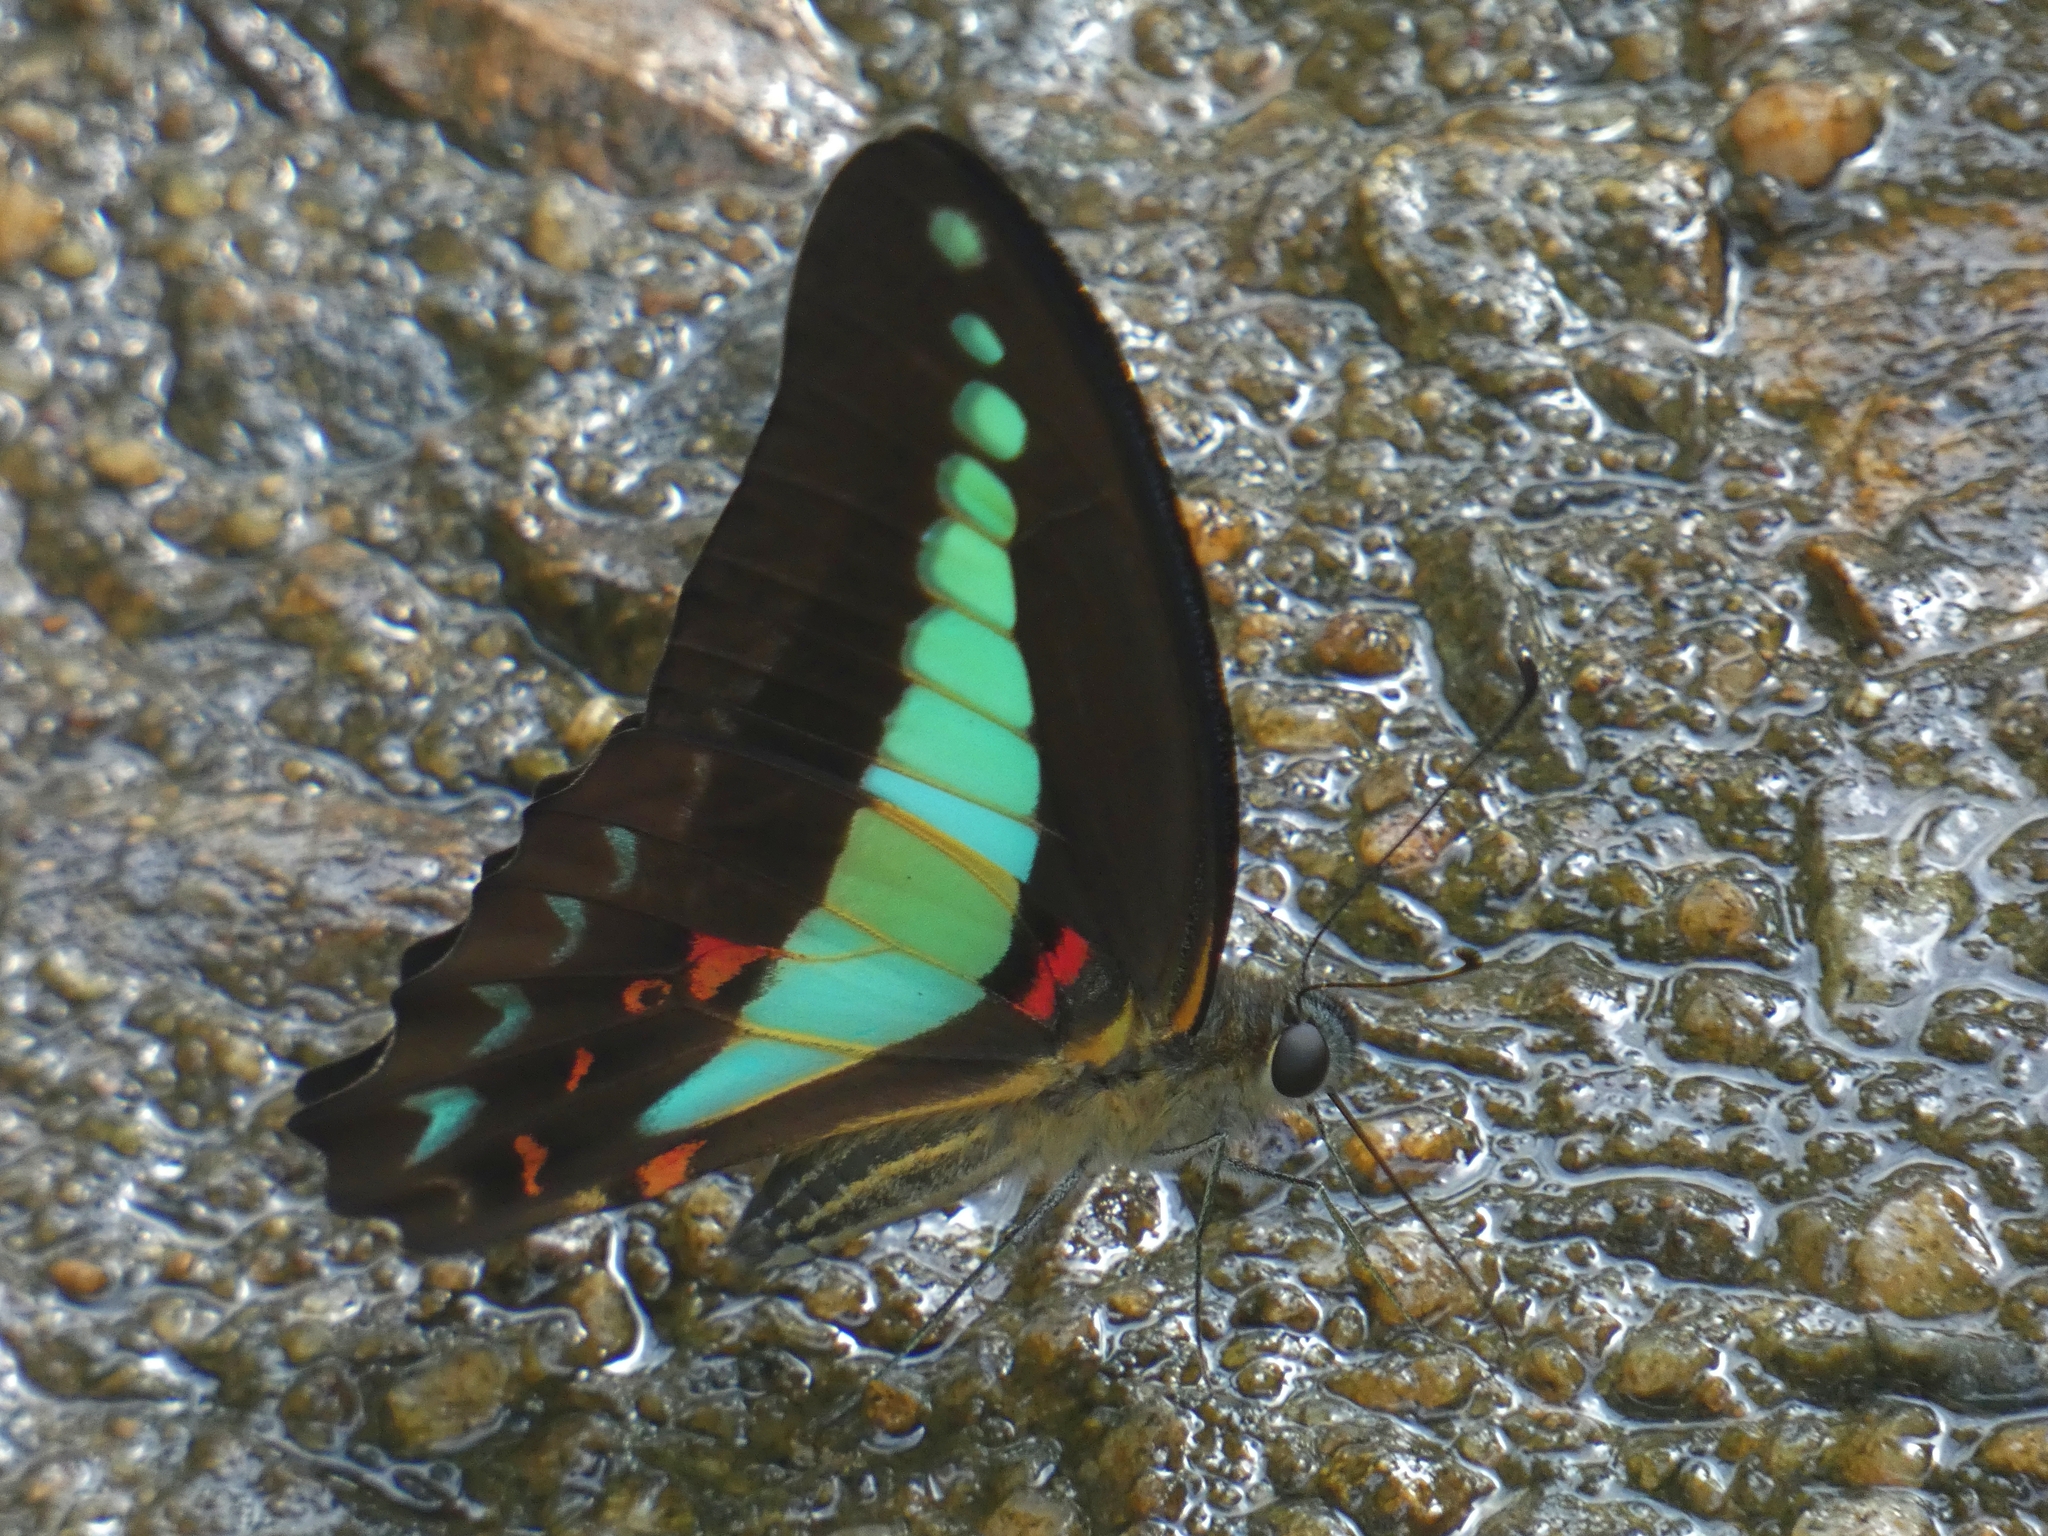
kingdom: Animalia
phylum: Arthropoda
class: Insecta
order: Lepidoptera
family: Papilionidae
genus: Graphium
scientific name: Graphium
